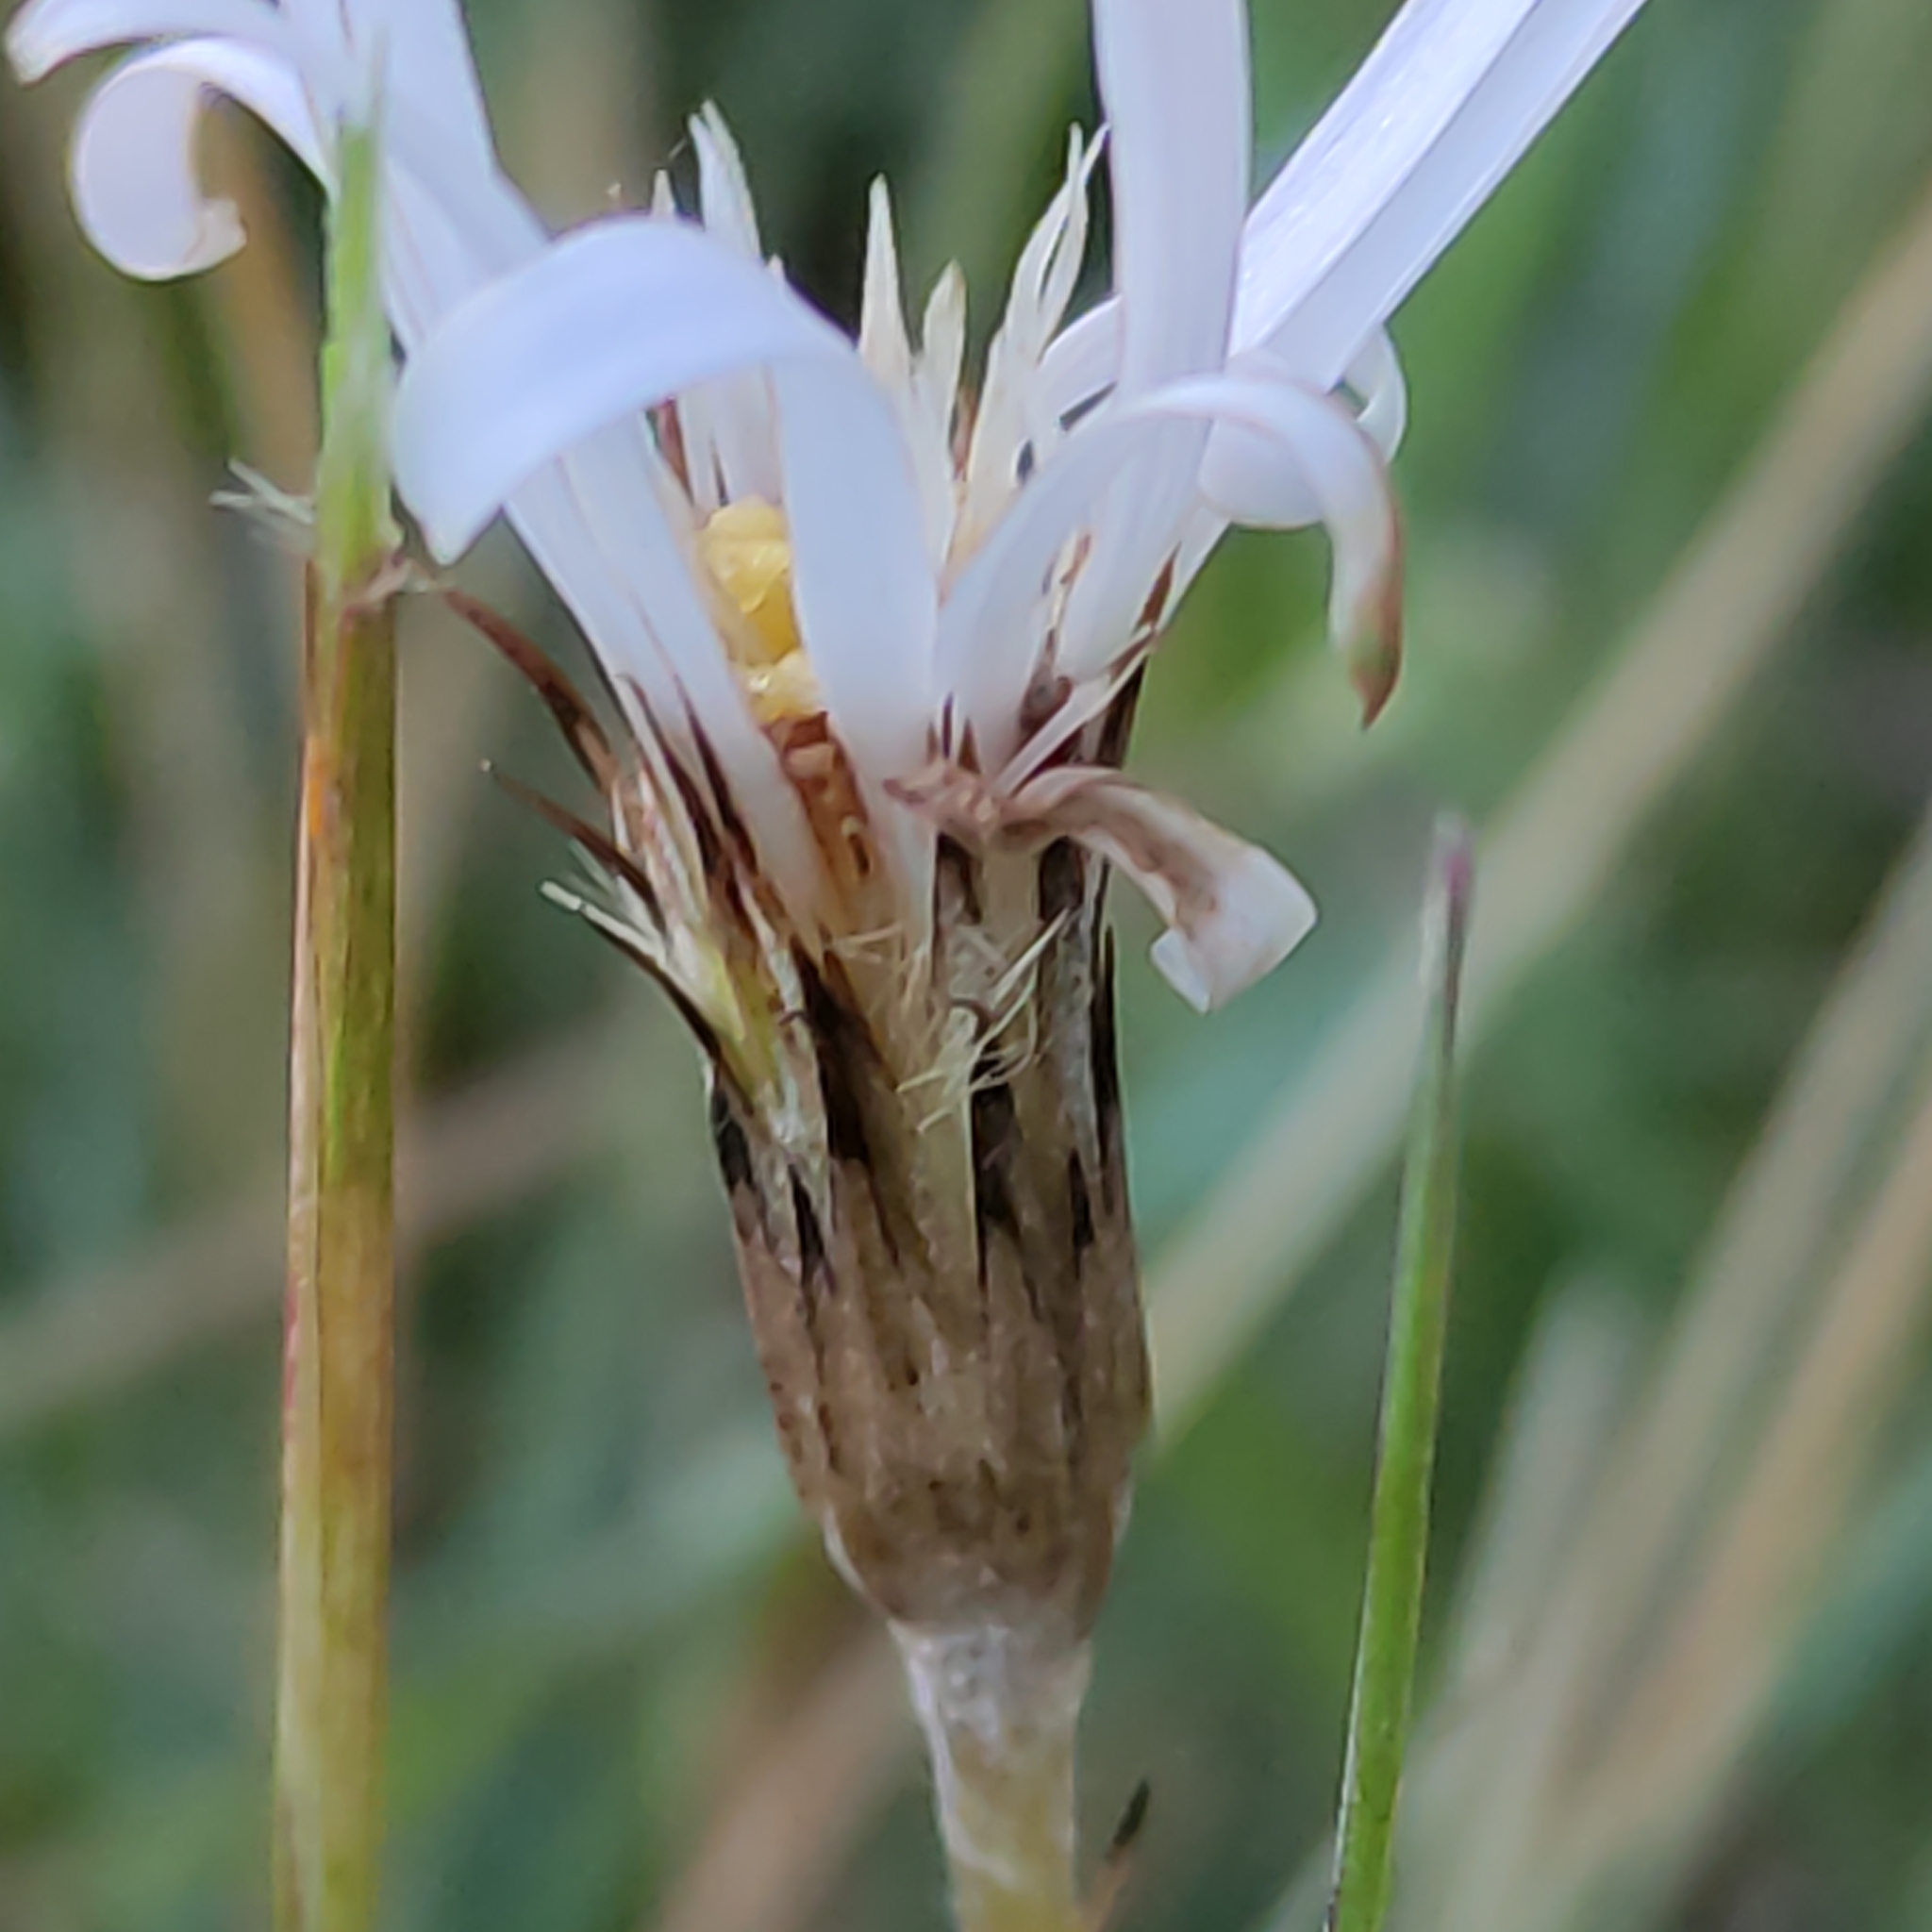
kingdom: Plantae
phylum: Tracheophyta
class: Magnoliopsida
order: Asterales
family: Asteraceae
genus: Celmisia
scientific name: Celmisia gracilenta
